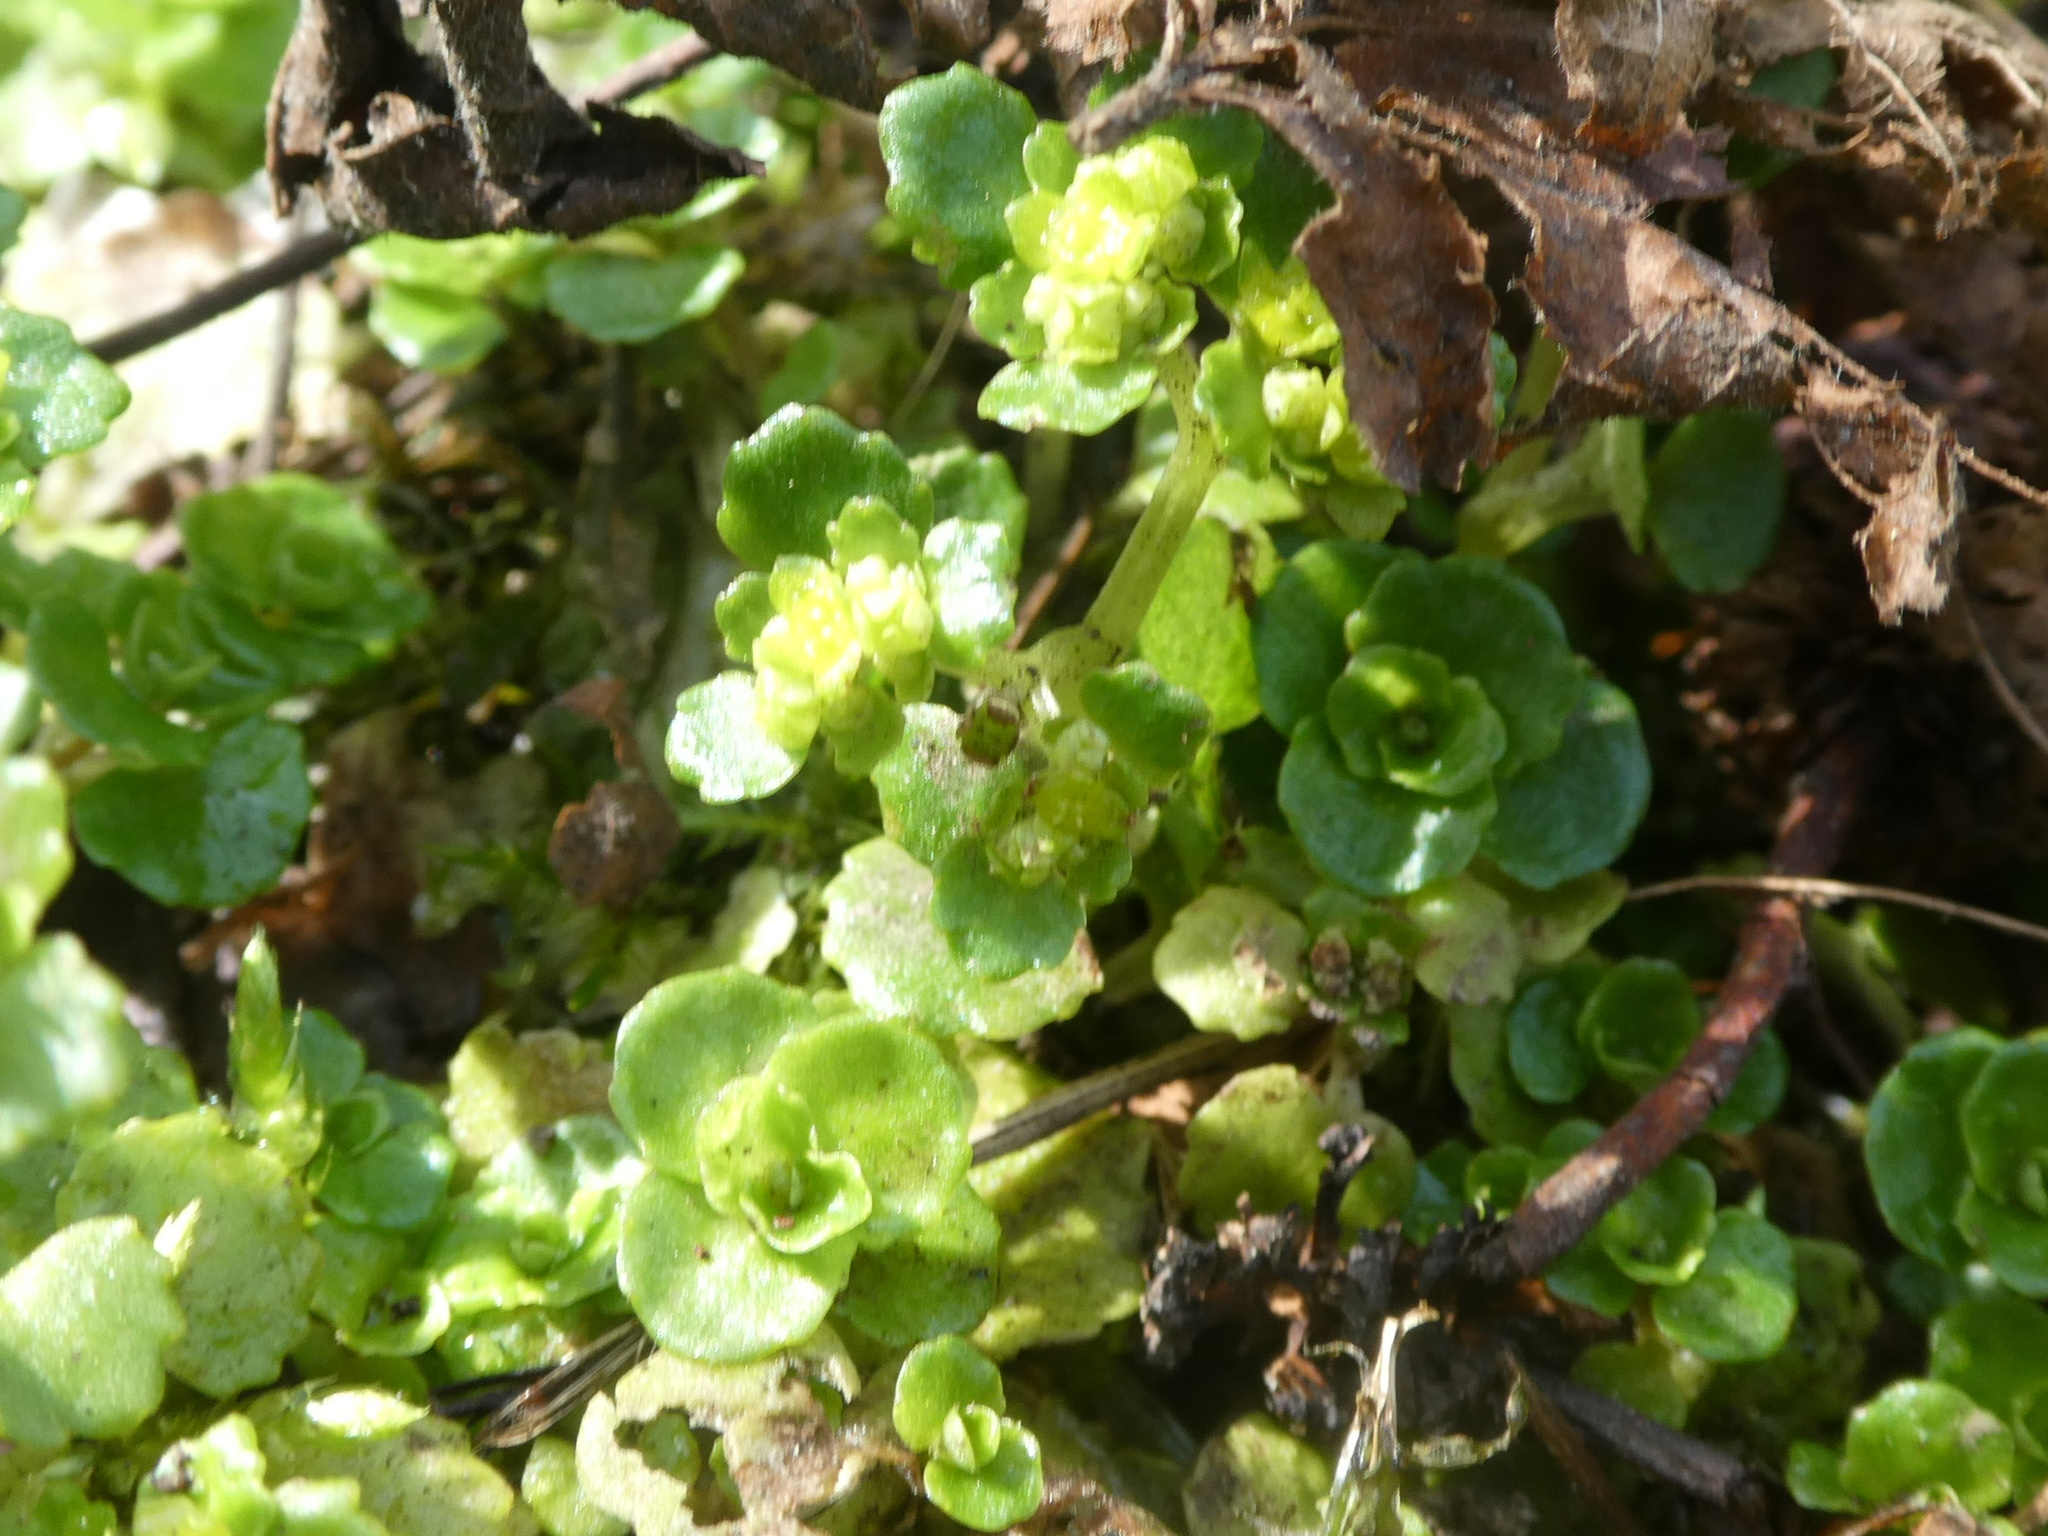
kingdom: Plantae
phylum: Tracheophyta
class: Magnoliopsida
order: Saxifragales
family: Saxifragaceae
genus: Chrysosplenium
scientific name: Chrysosplenium oppositifolium
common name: Opposite-leaved golden-saxifrage
